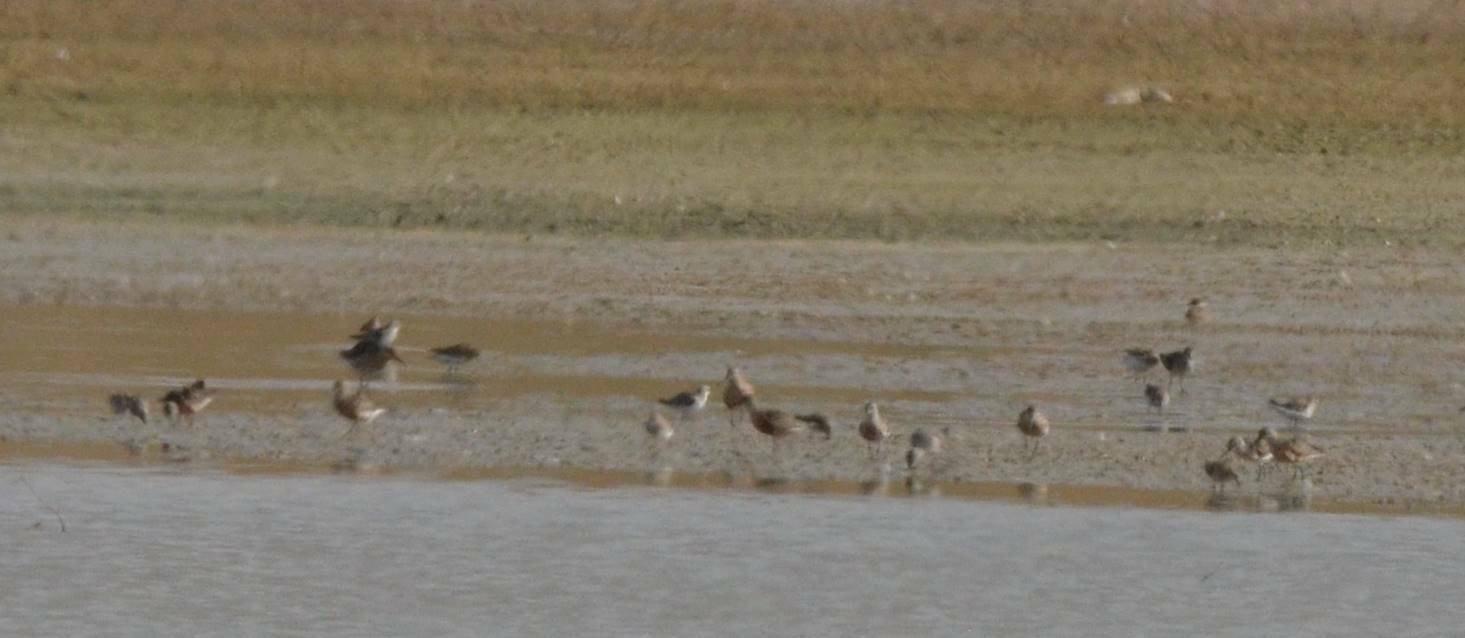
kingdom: Animalia
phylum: Chordata
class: Aves
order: Charadriiformes
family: Scolopacidae
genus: Calidris
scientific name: Calidris ferruginea
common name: Curlew sandpiper
